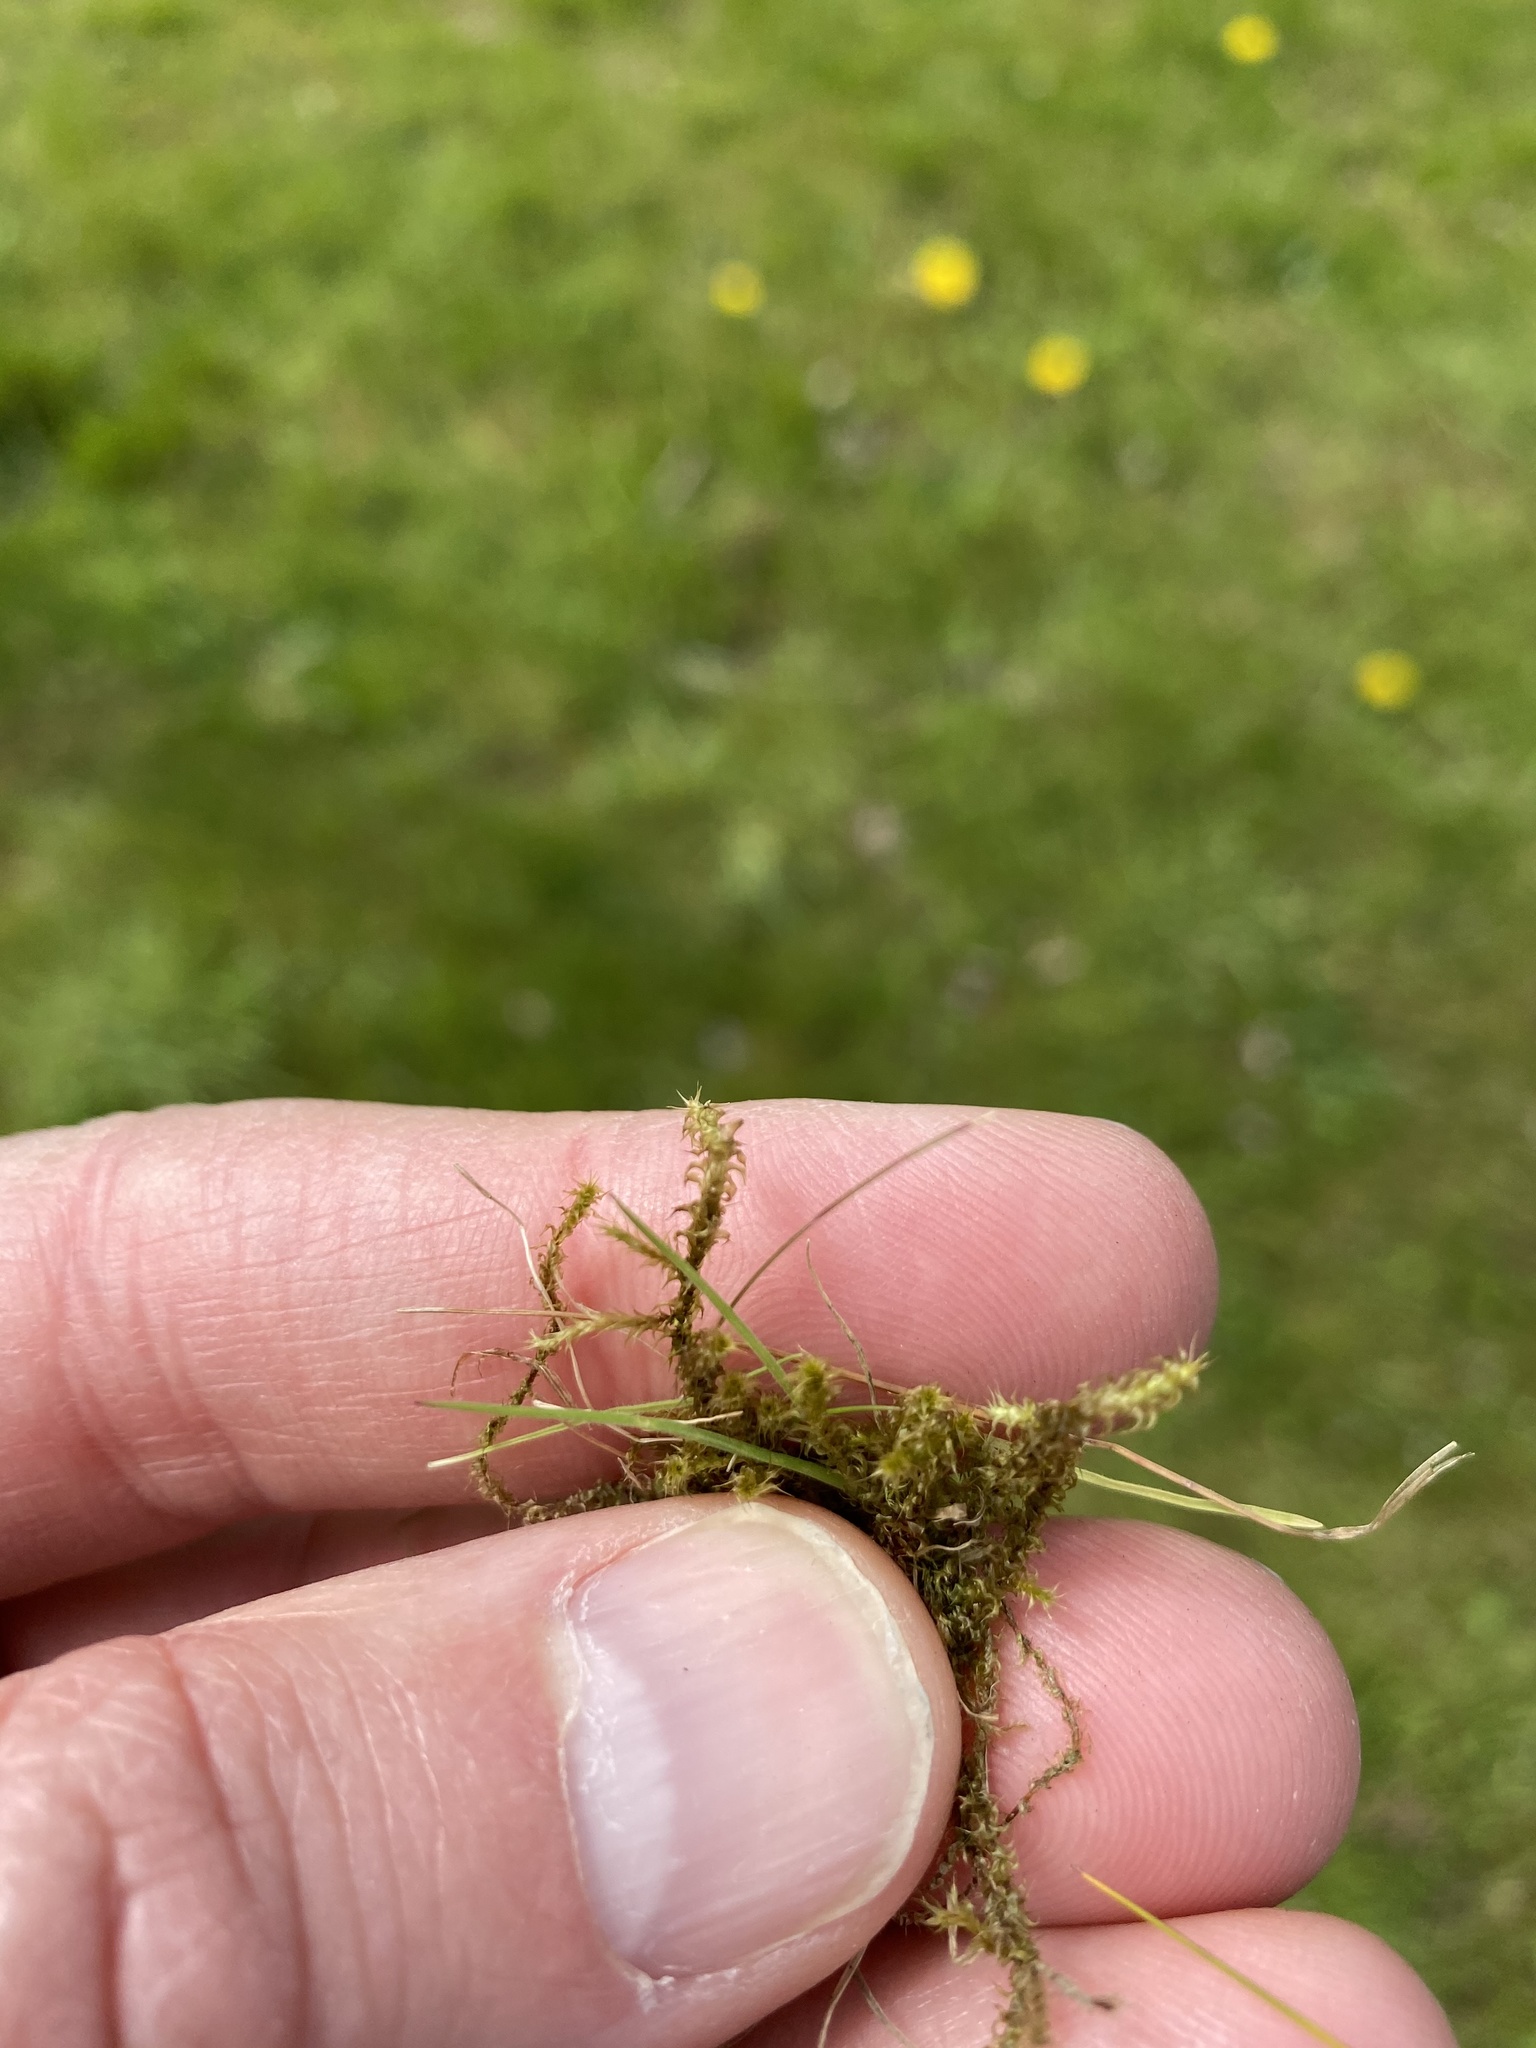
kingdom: Plantae
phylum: Bryophyta
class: Bryopsida
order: Hypnales
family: Hylocomiaceae
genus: Rhytidiadelphus
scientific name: Rhytidiadelphus squarrosus
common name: Springy turf-moss
